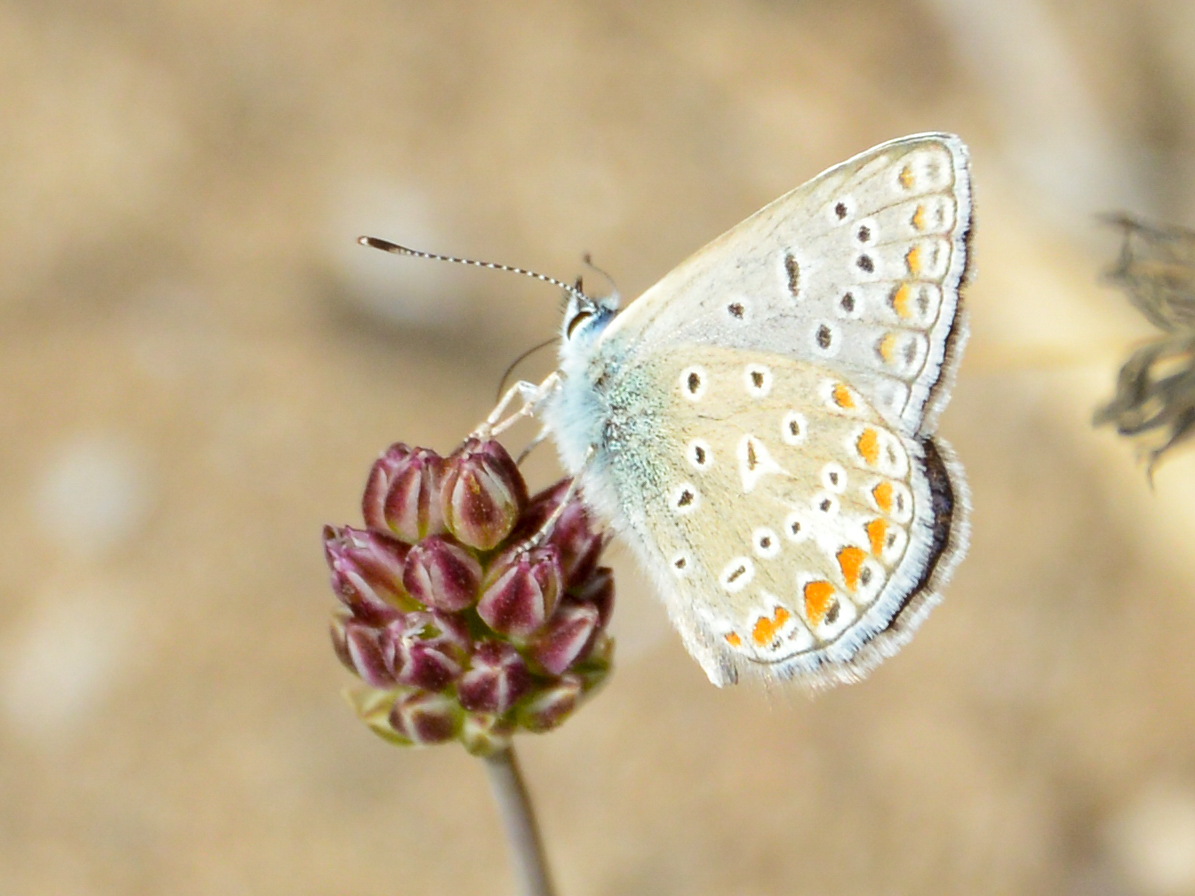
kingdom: Animalia
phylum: Arthropoda
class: Insecta
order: Lepidoptera
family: Lycaenidae
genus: Polyommatus
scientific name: Polyommatus icarus
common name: Common blue
